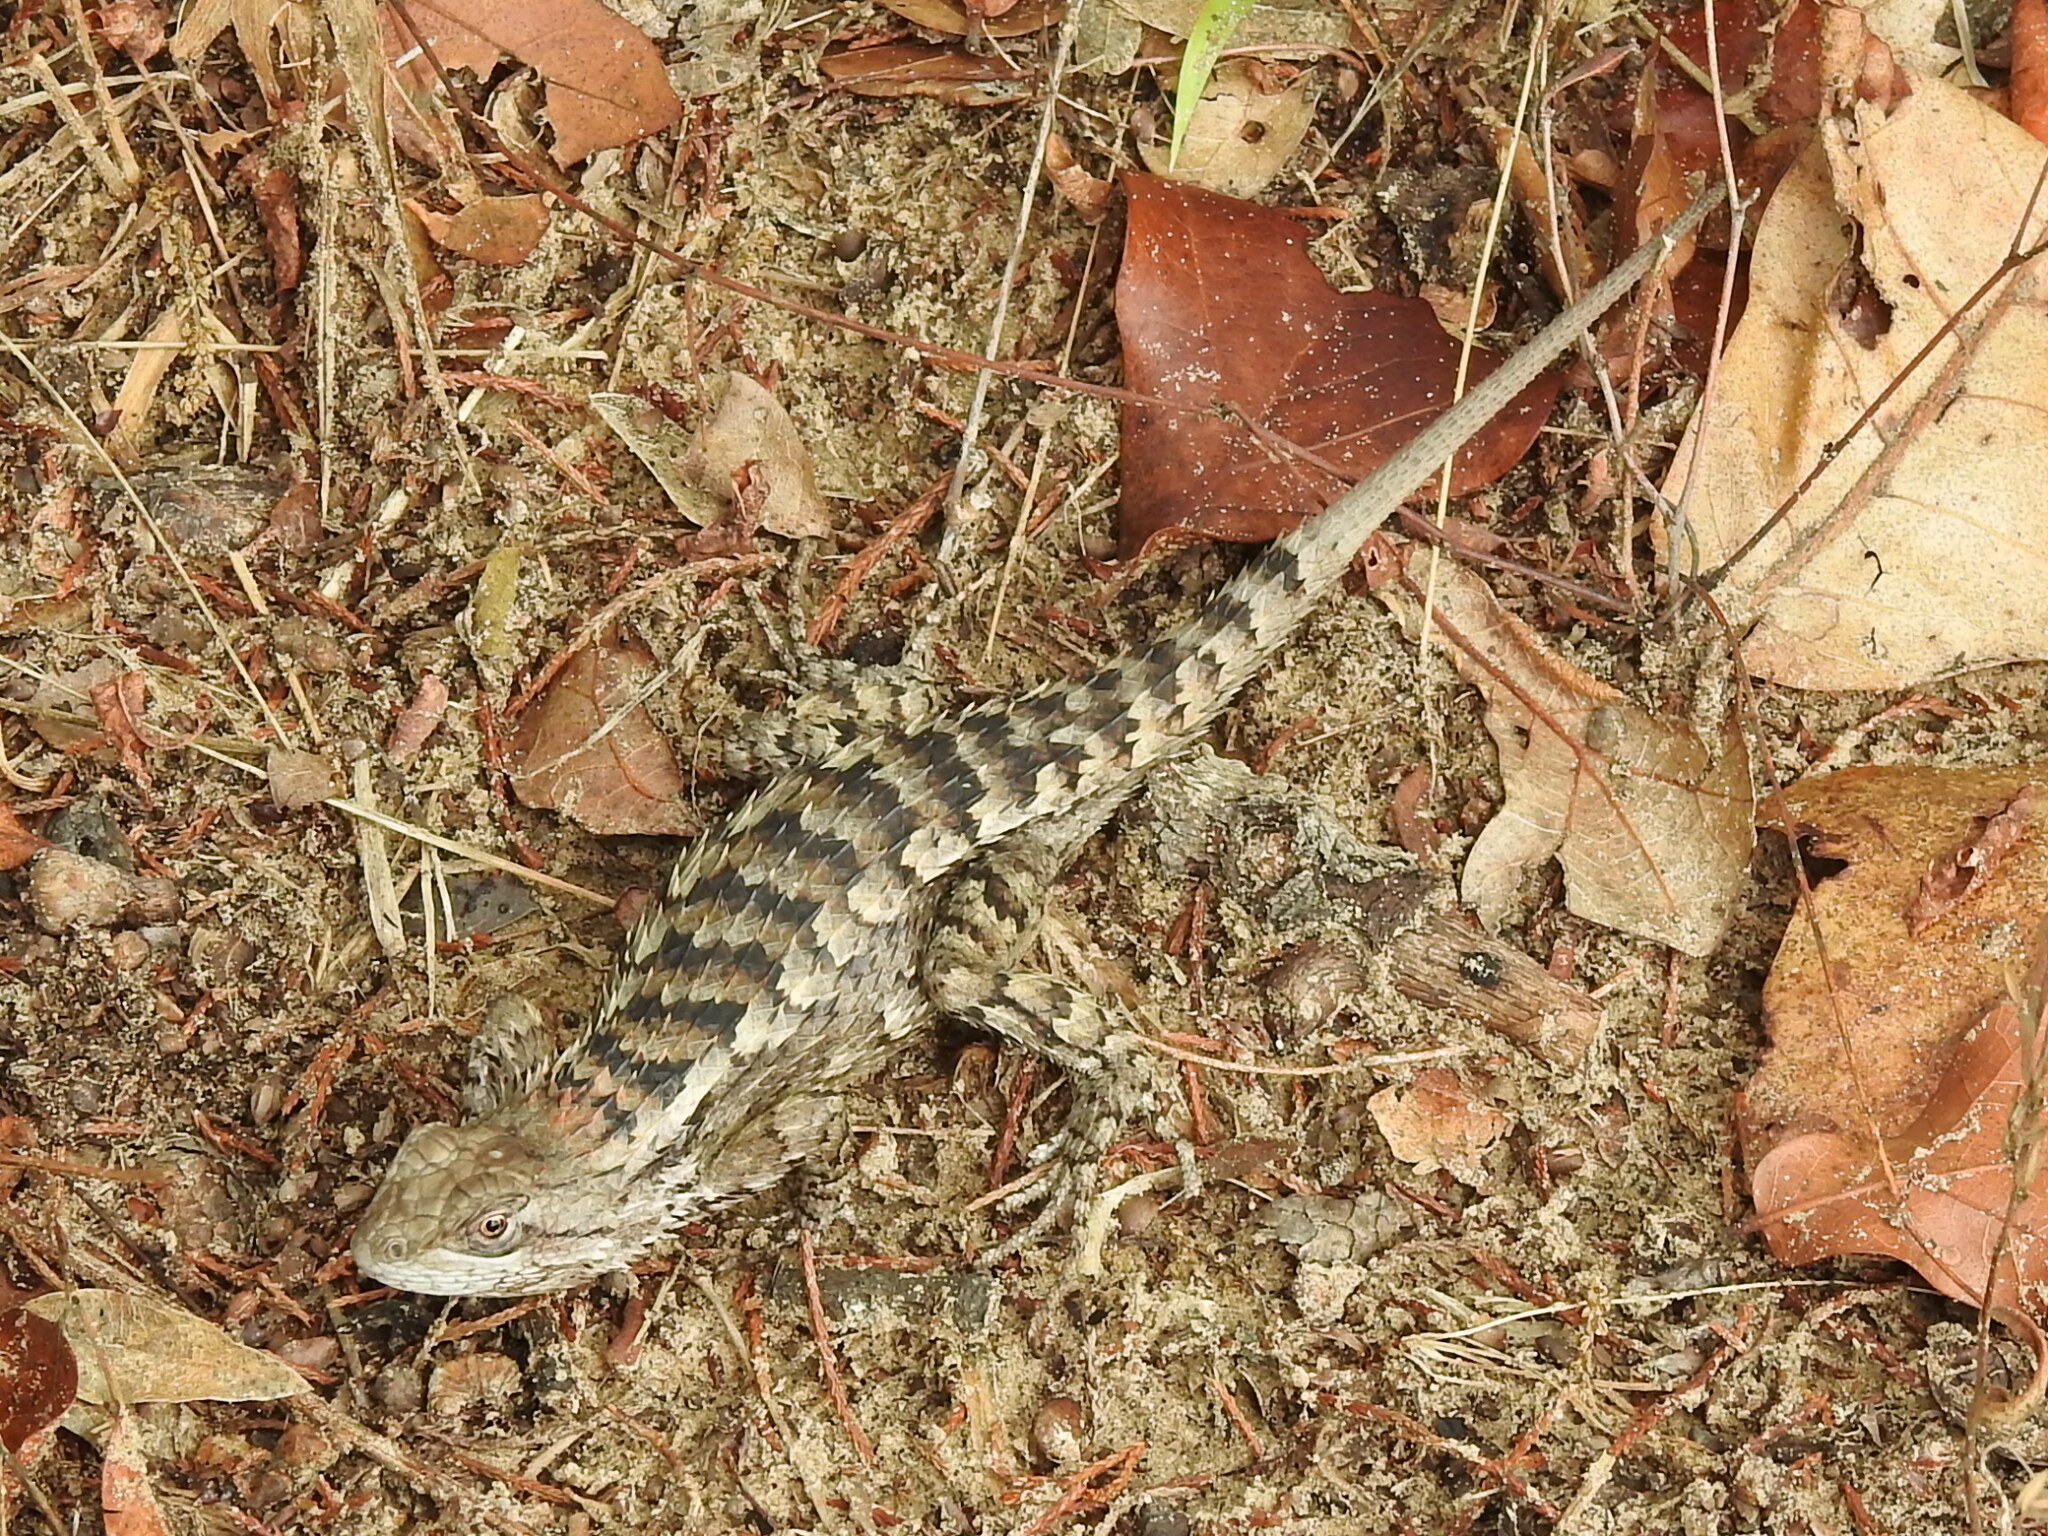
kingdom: Animalia
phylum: Chordata
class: Squamata
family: Phrynosomatidae
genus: Sceloporus
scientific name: Sceloporus olivaceus
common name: Texas spiny lizard
